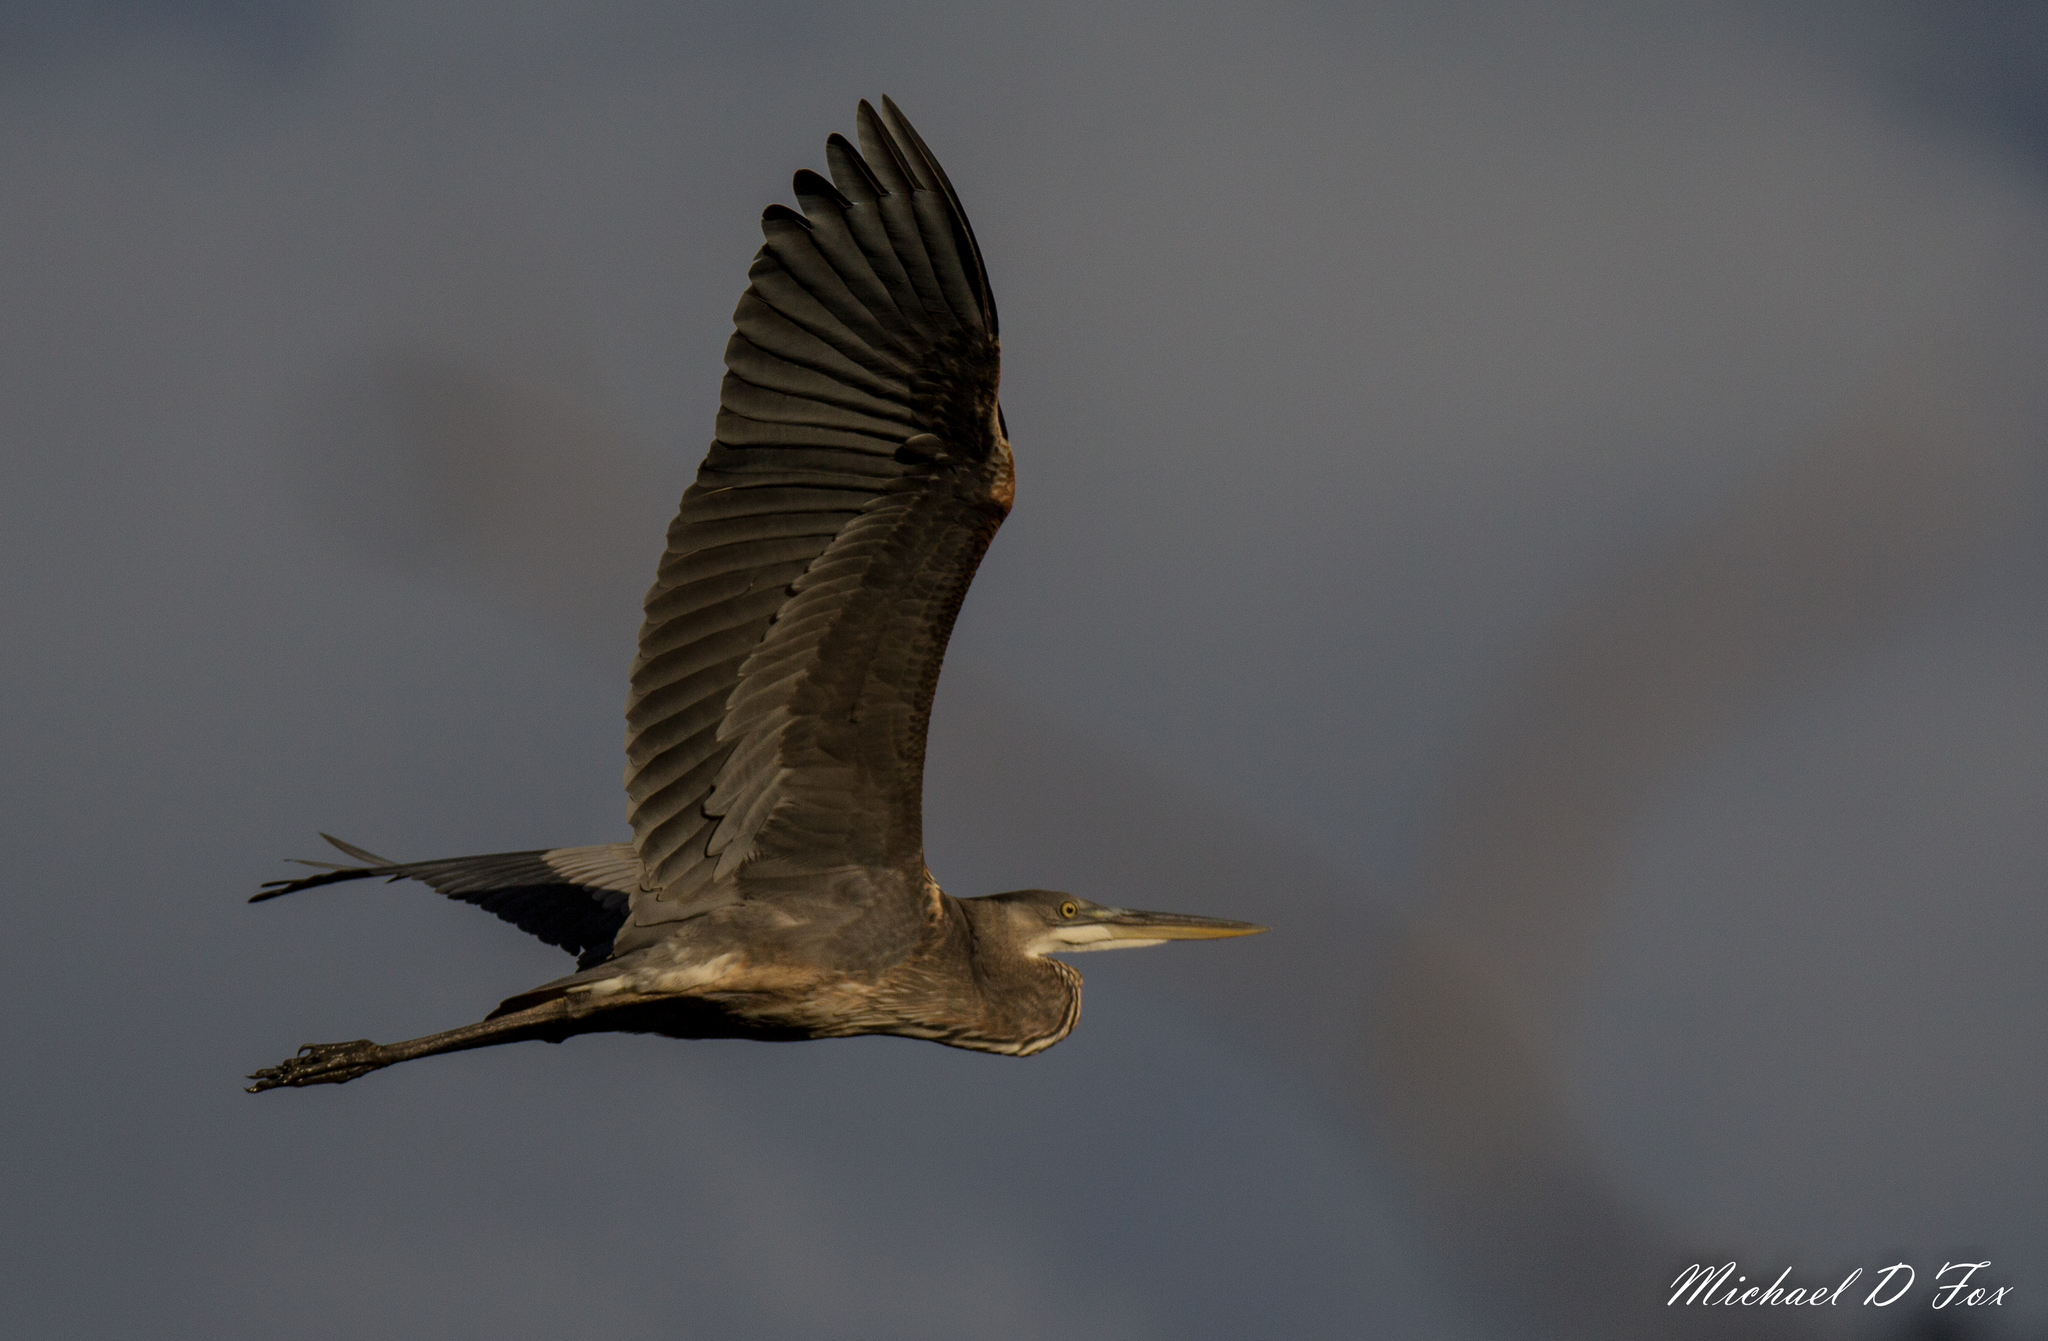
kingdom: Animalia
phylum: Chordata
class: Aves
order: Pelecaniformes
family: Ardeidae
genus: Ardea
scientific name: Ardea herodias
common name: Great blue heron
